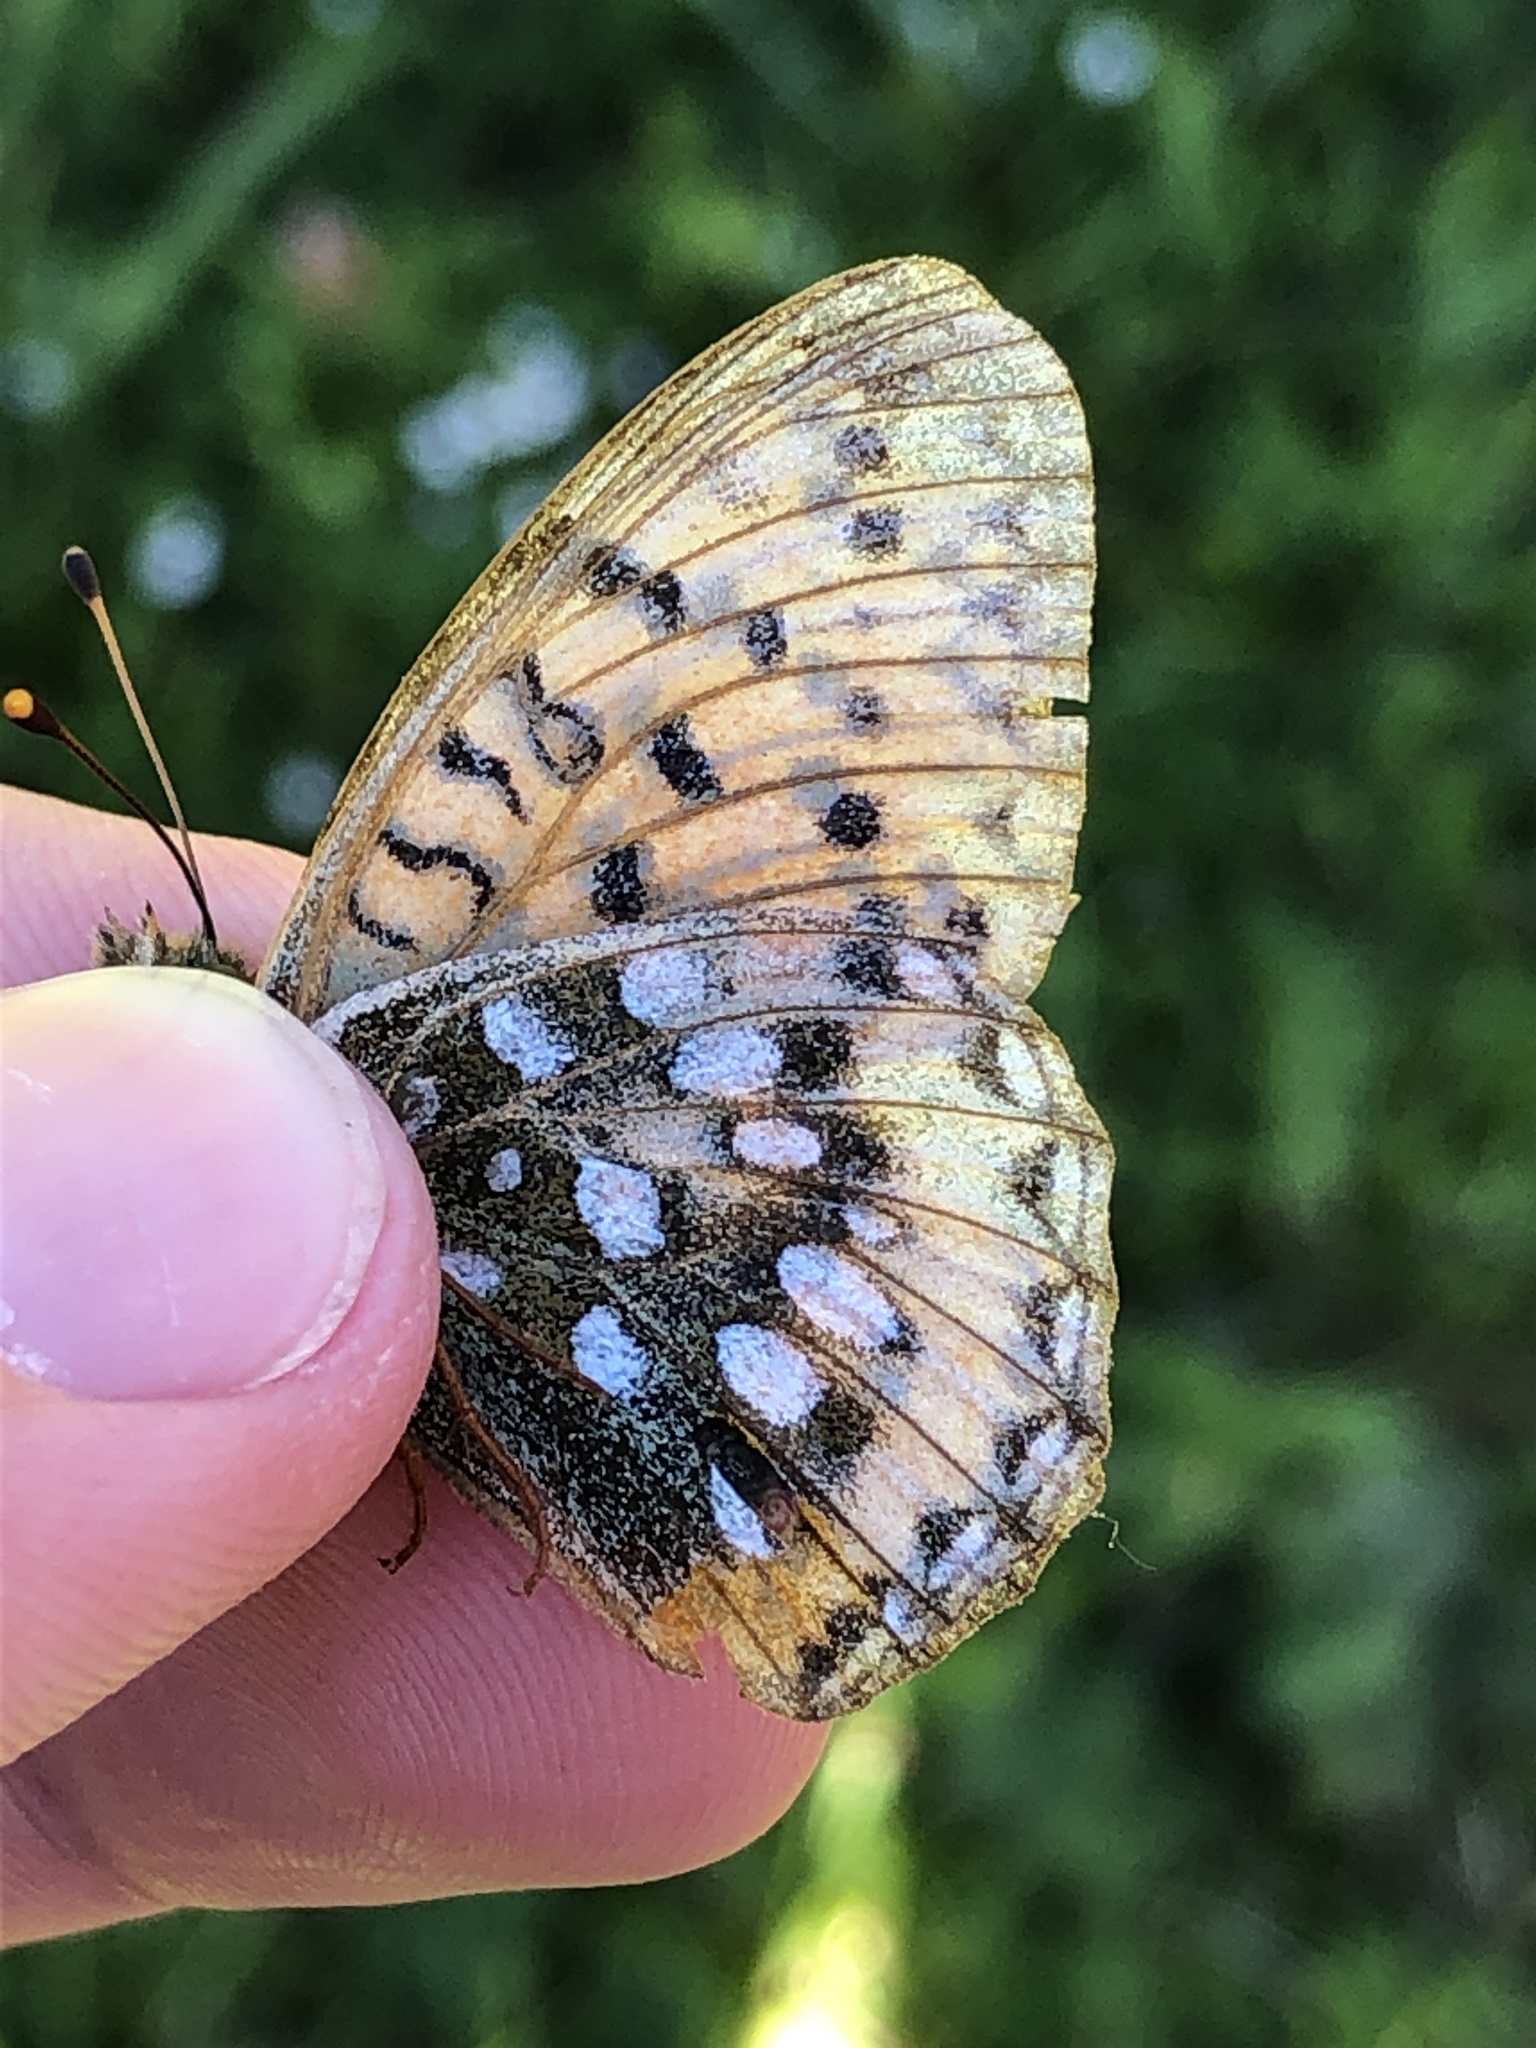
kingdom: Animalia
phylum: Arthropoda
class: Insecta
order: Lepidoptera
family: Nymphalidae
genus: Speyeria
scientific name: Speyeria aglaja
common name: Dark green fritillary
